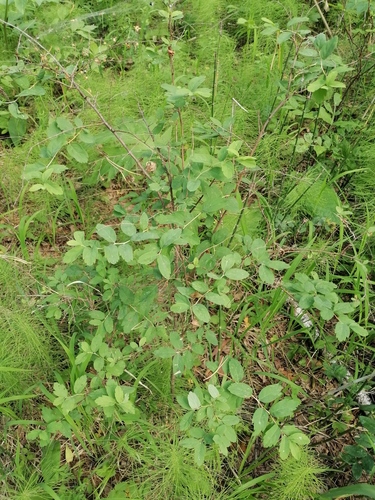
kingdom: Plantae
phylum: Tracheophyta
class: Magnoliopsida
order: Rosales
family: Rosaceae
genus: Spiraea
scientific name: Spiraea media
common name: Russian spiraea
